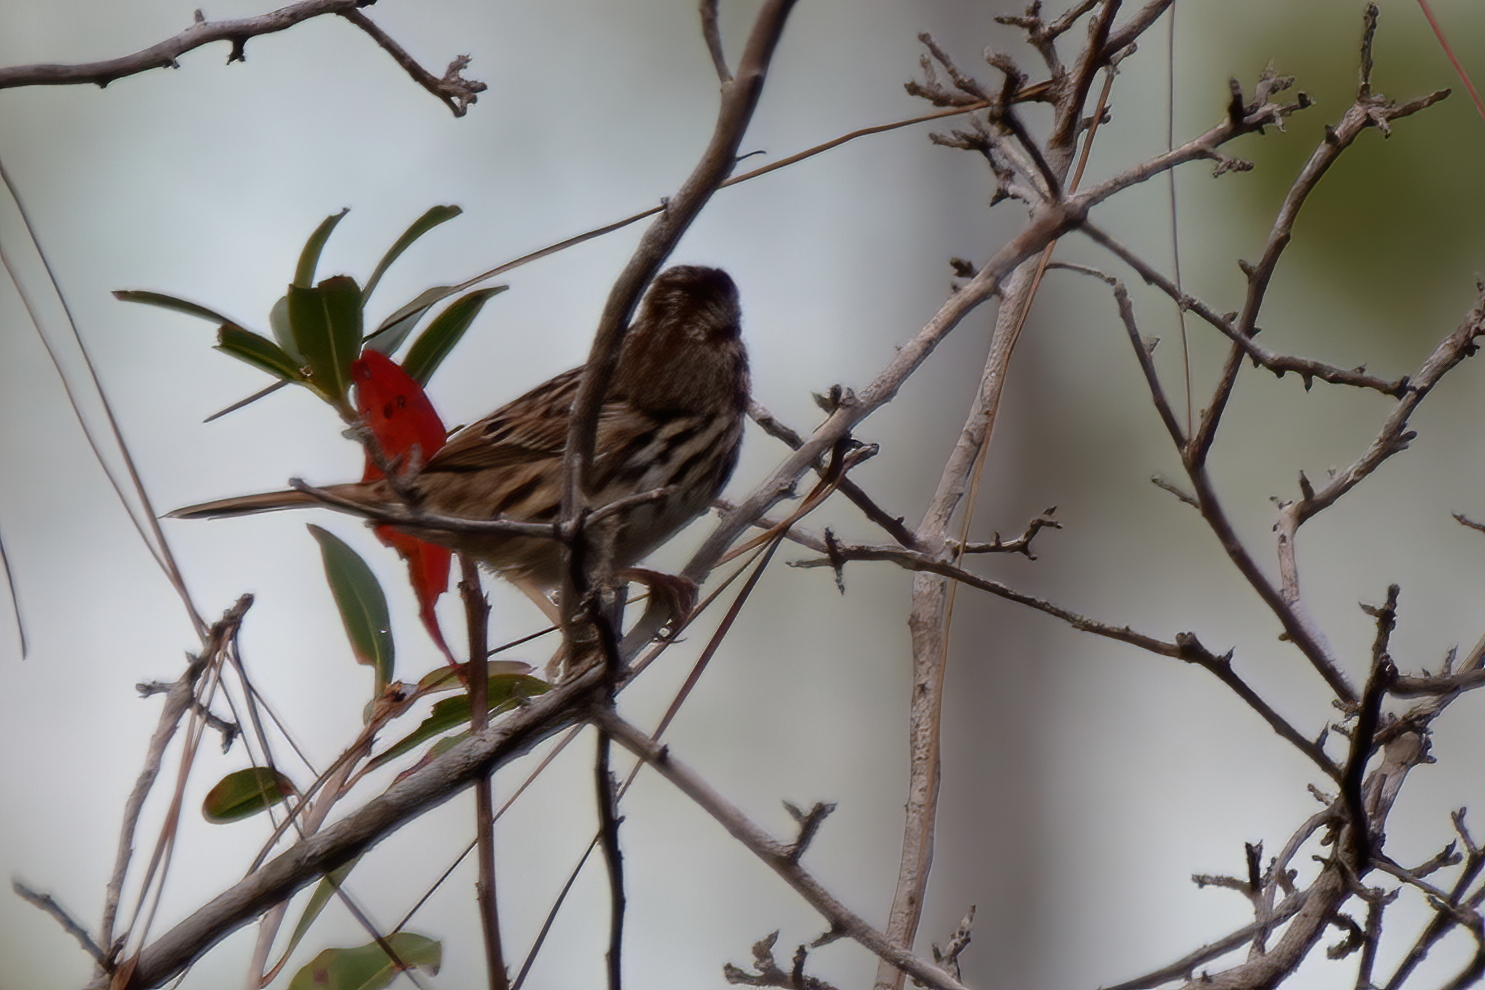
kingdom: Animalia
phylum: Chordata
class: Aves
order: Passeriformes
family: Passerellidae
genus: Melospiza
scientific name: Melospiza melodia
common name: Song sparrow
